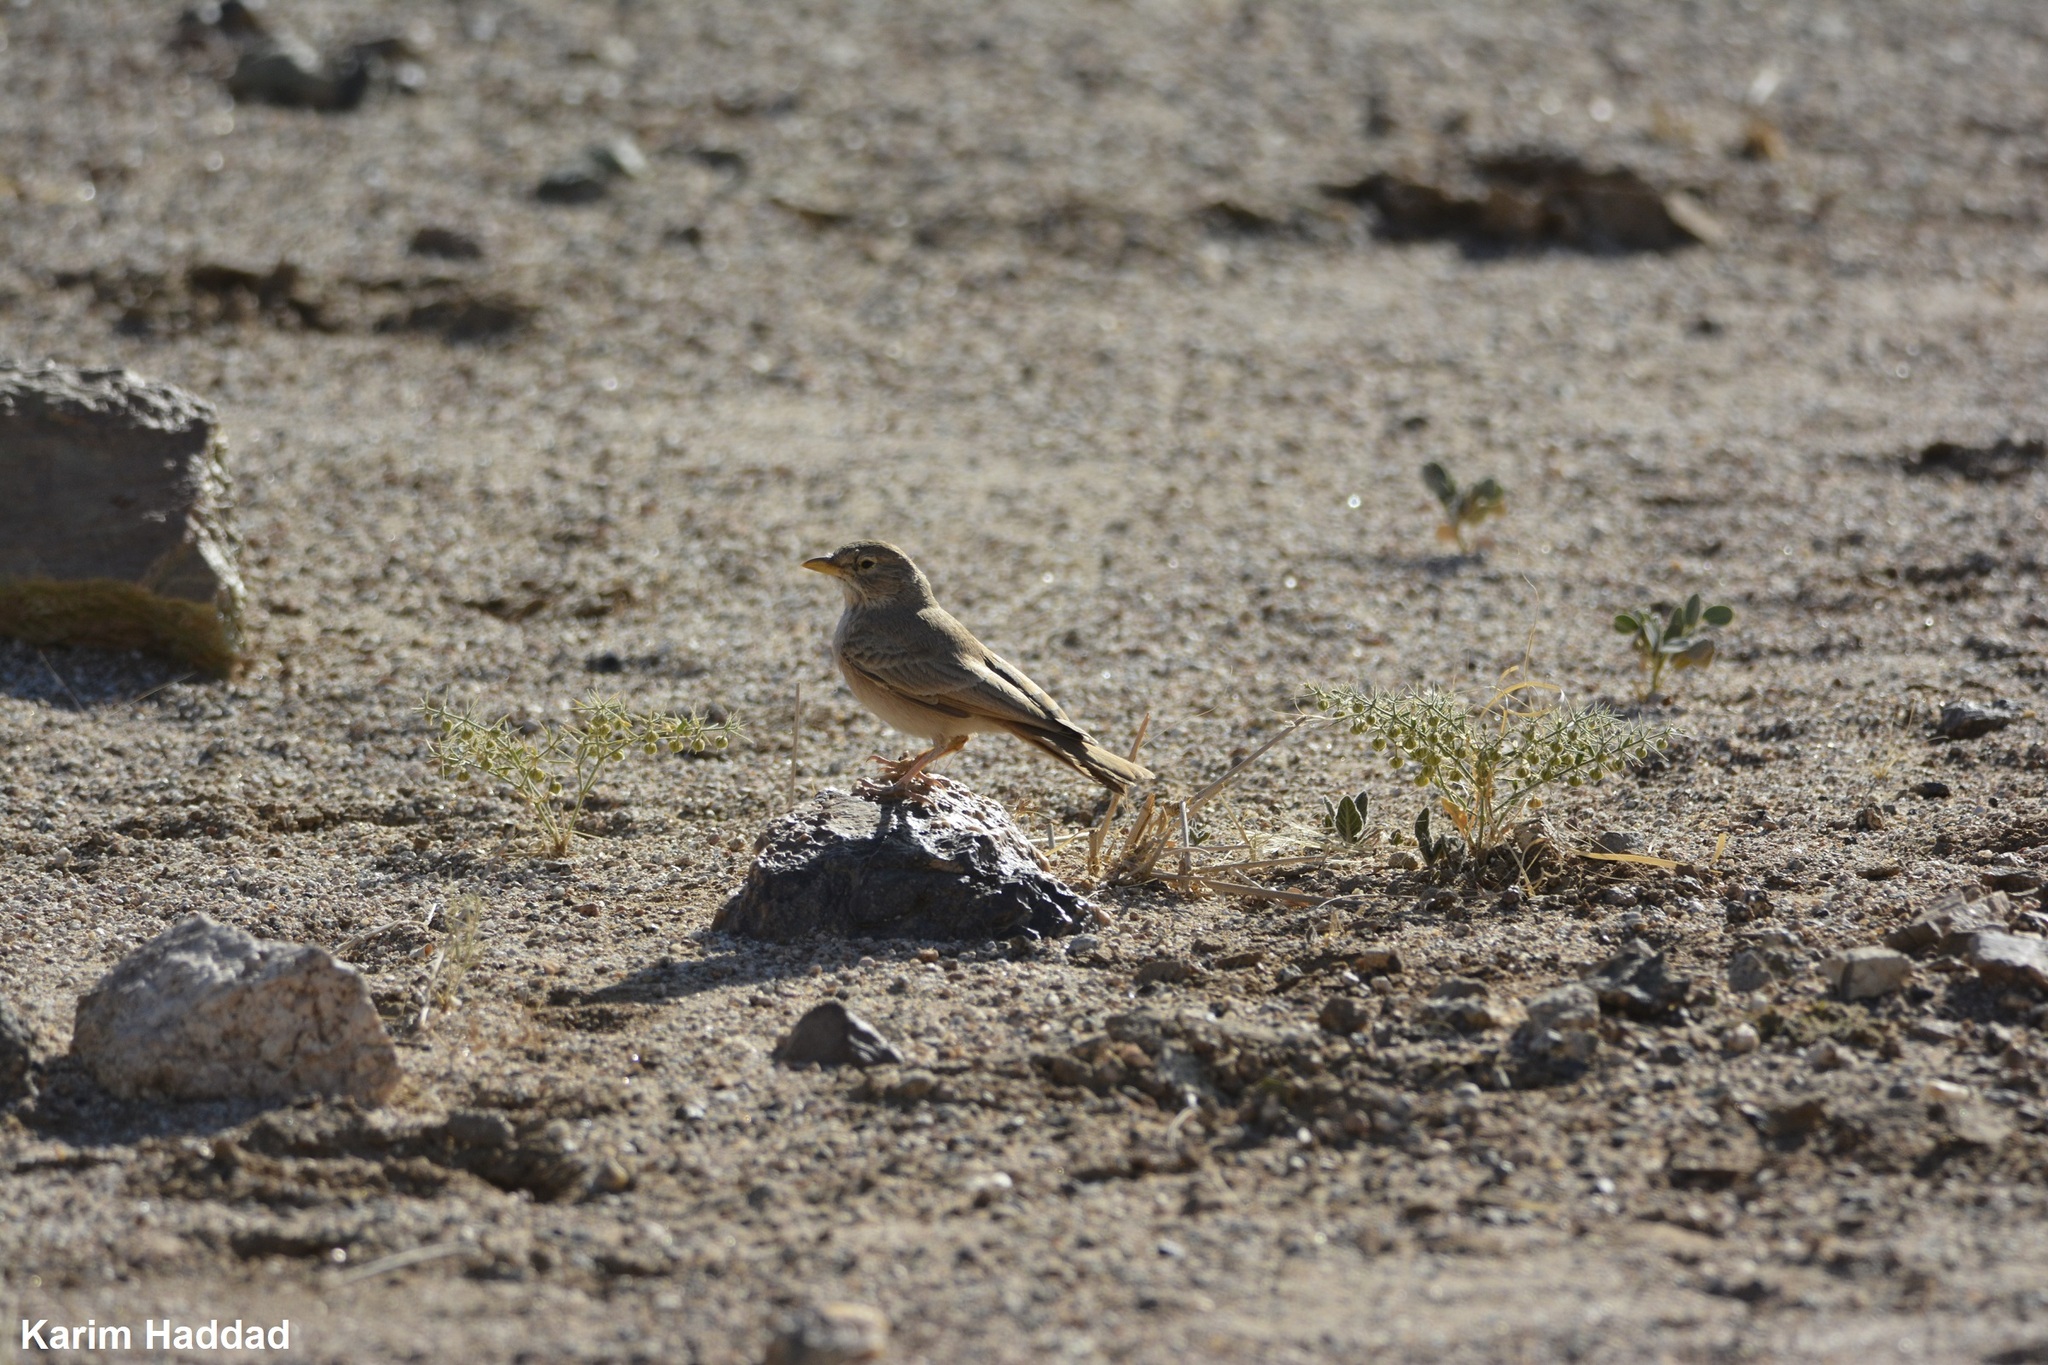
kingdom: Animalia
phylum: Chordata
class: Aves
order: Passeriformes
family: Alaudidae
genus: Ammomanes
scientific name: Ammomanes deserti
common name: Desert lark
